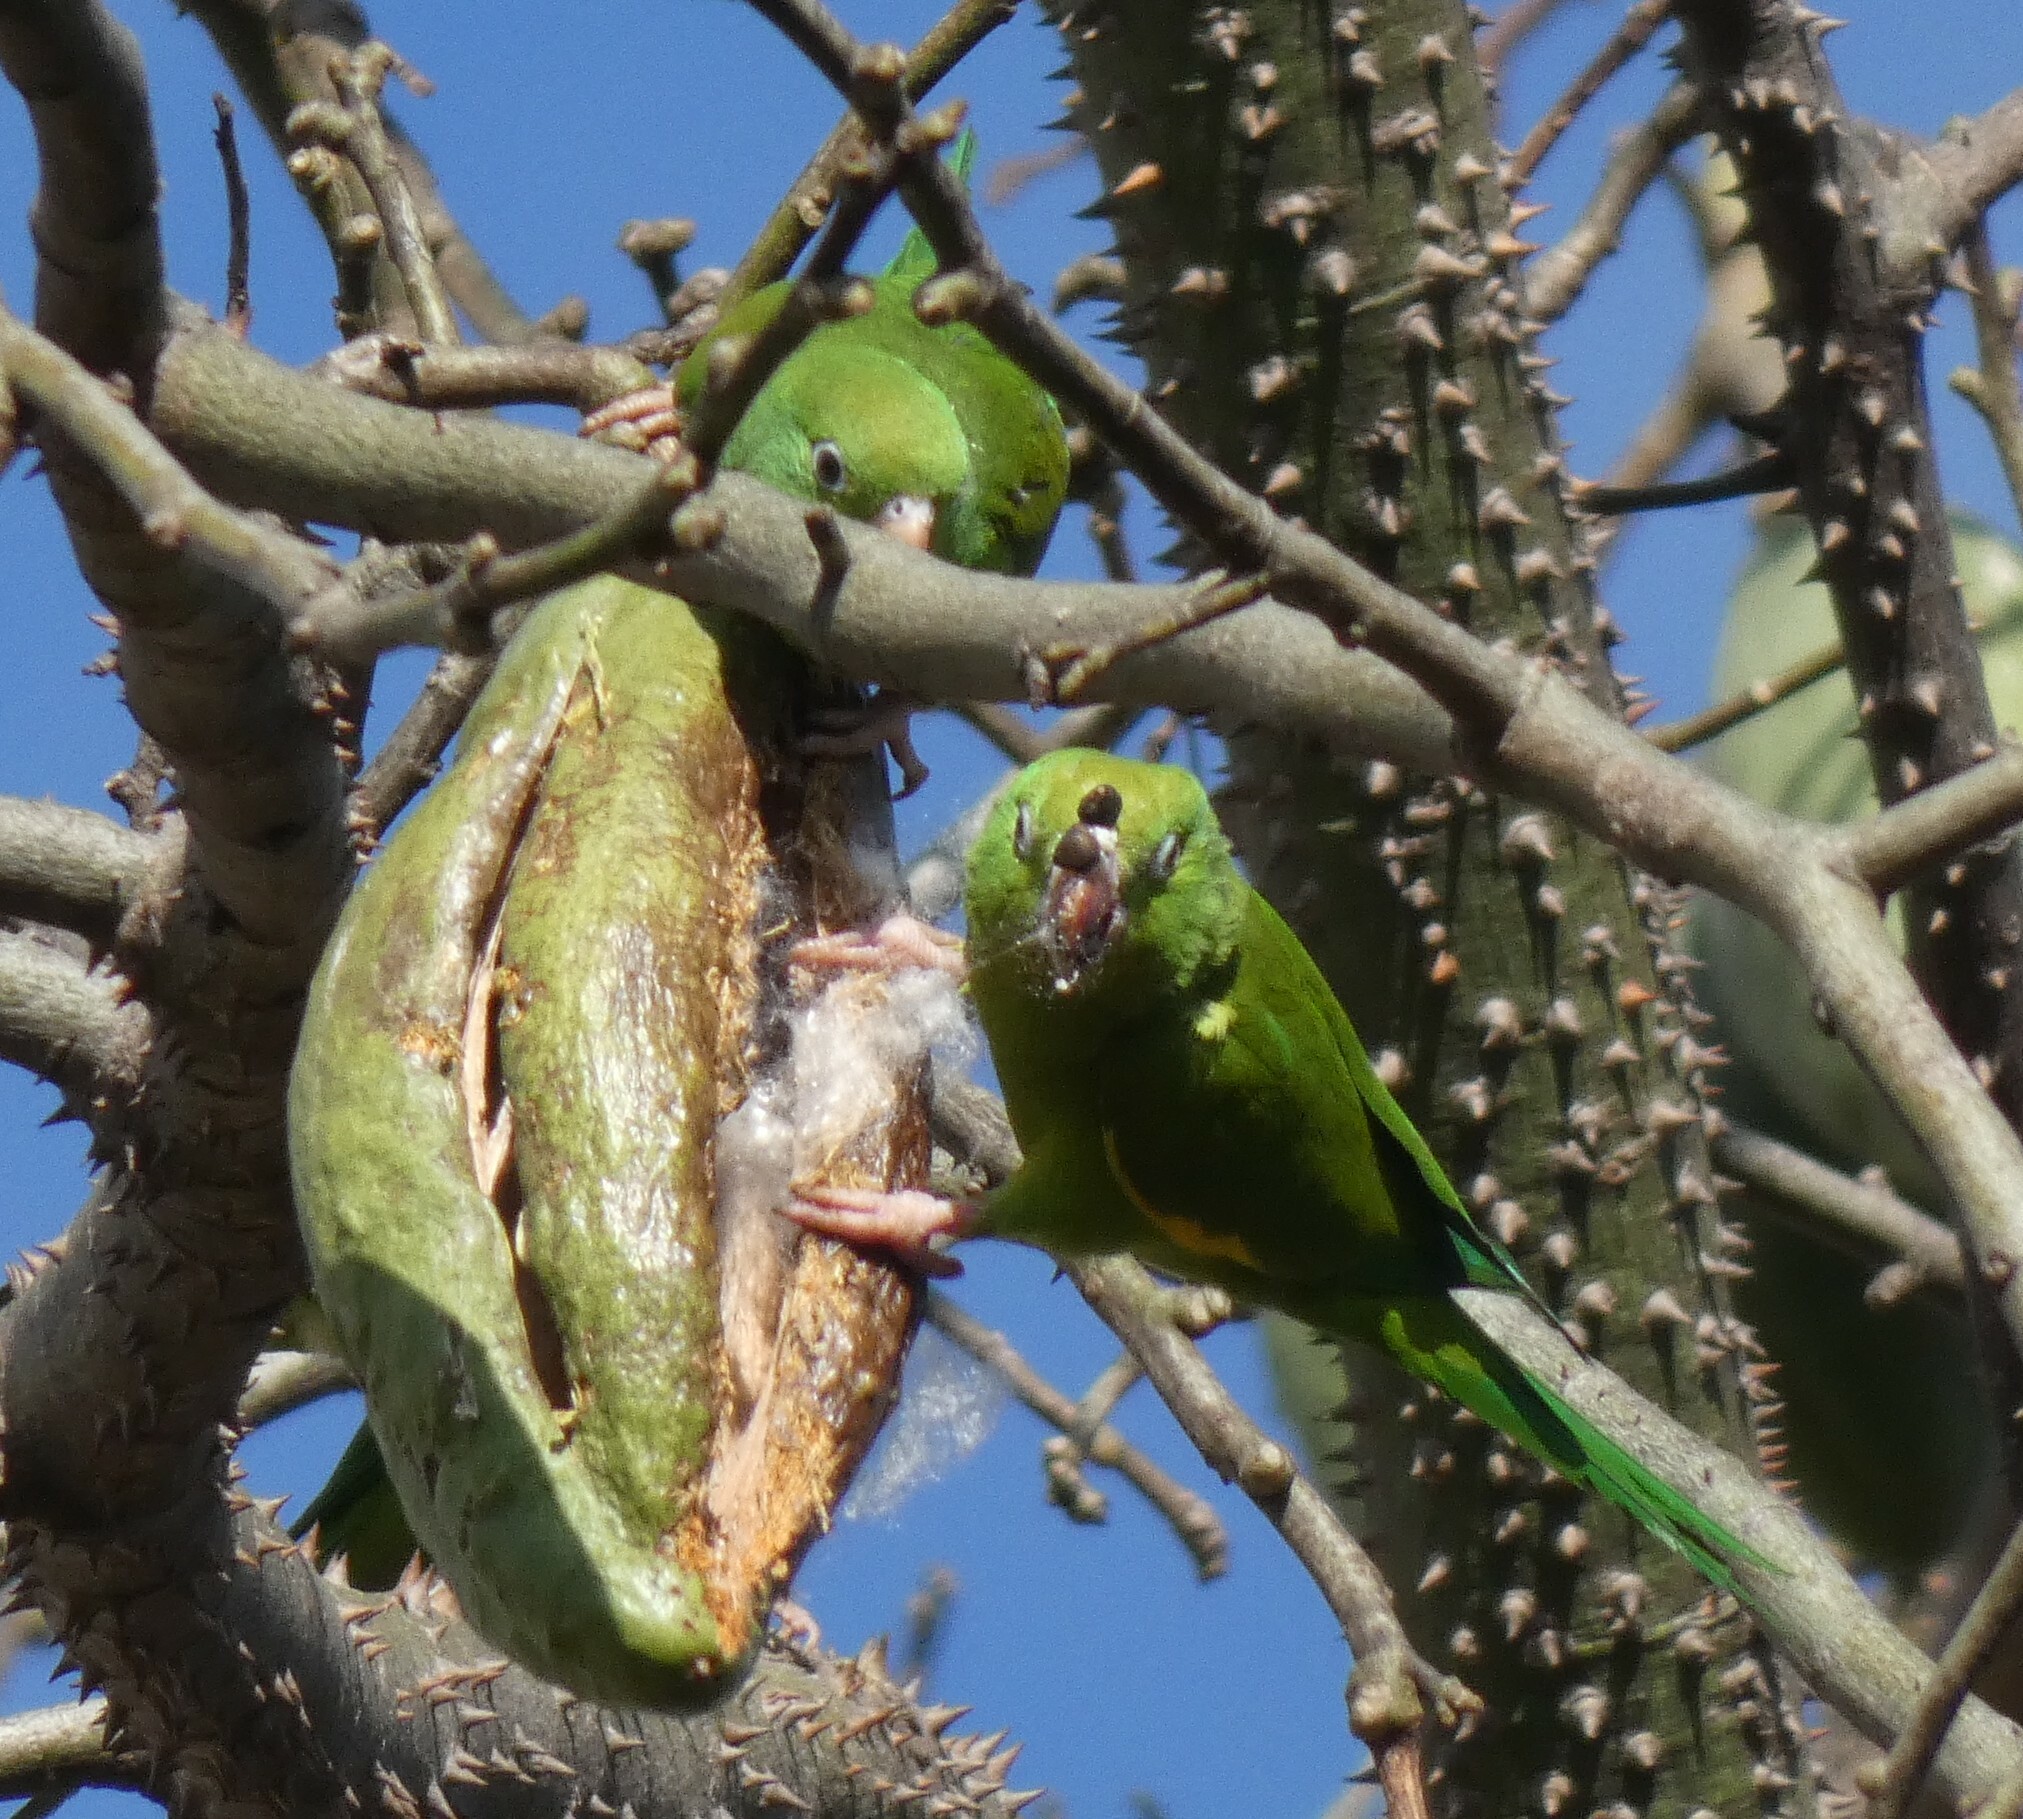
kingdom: Animalia
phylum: Chordata
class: Aves
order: Psittaciformes
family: Psittacidae
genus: Brotogeris
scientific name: Brotogeris chiriri
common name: Yellow-chevroned parakeet
